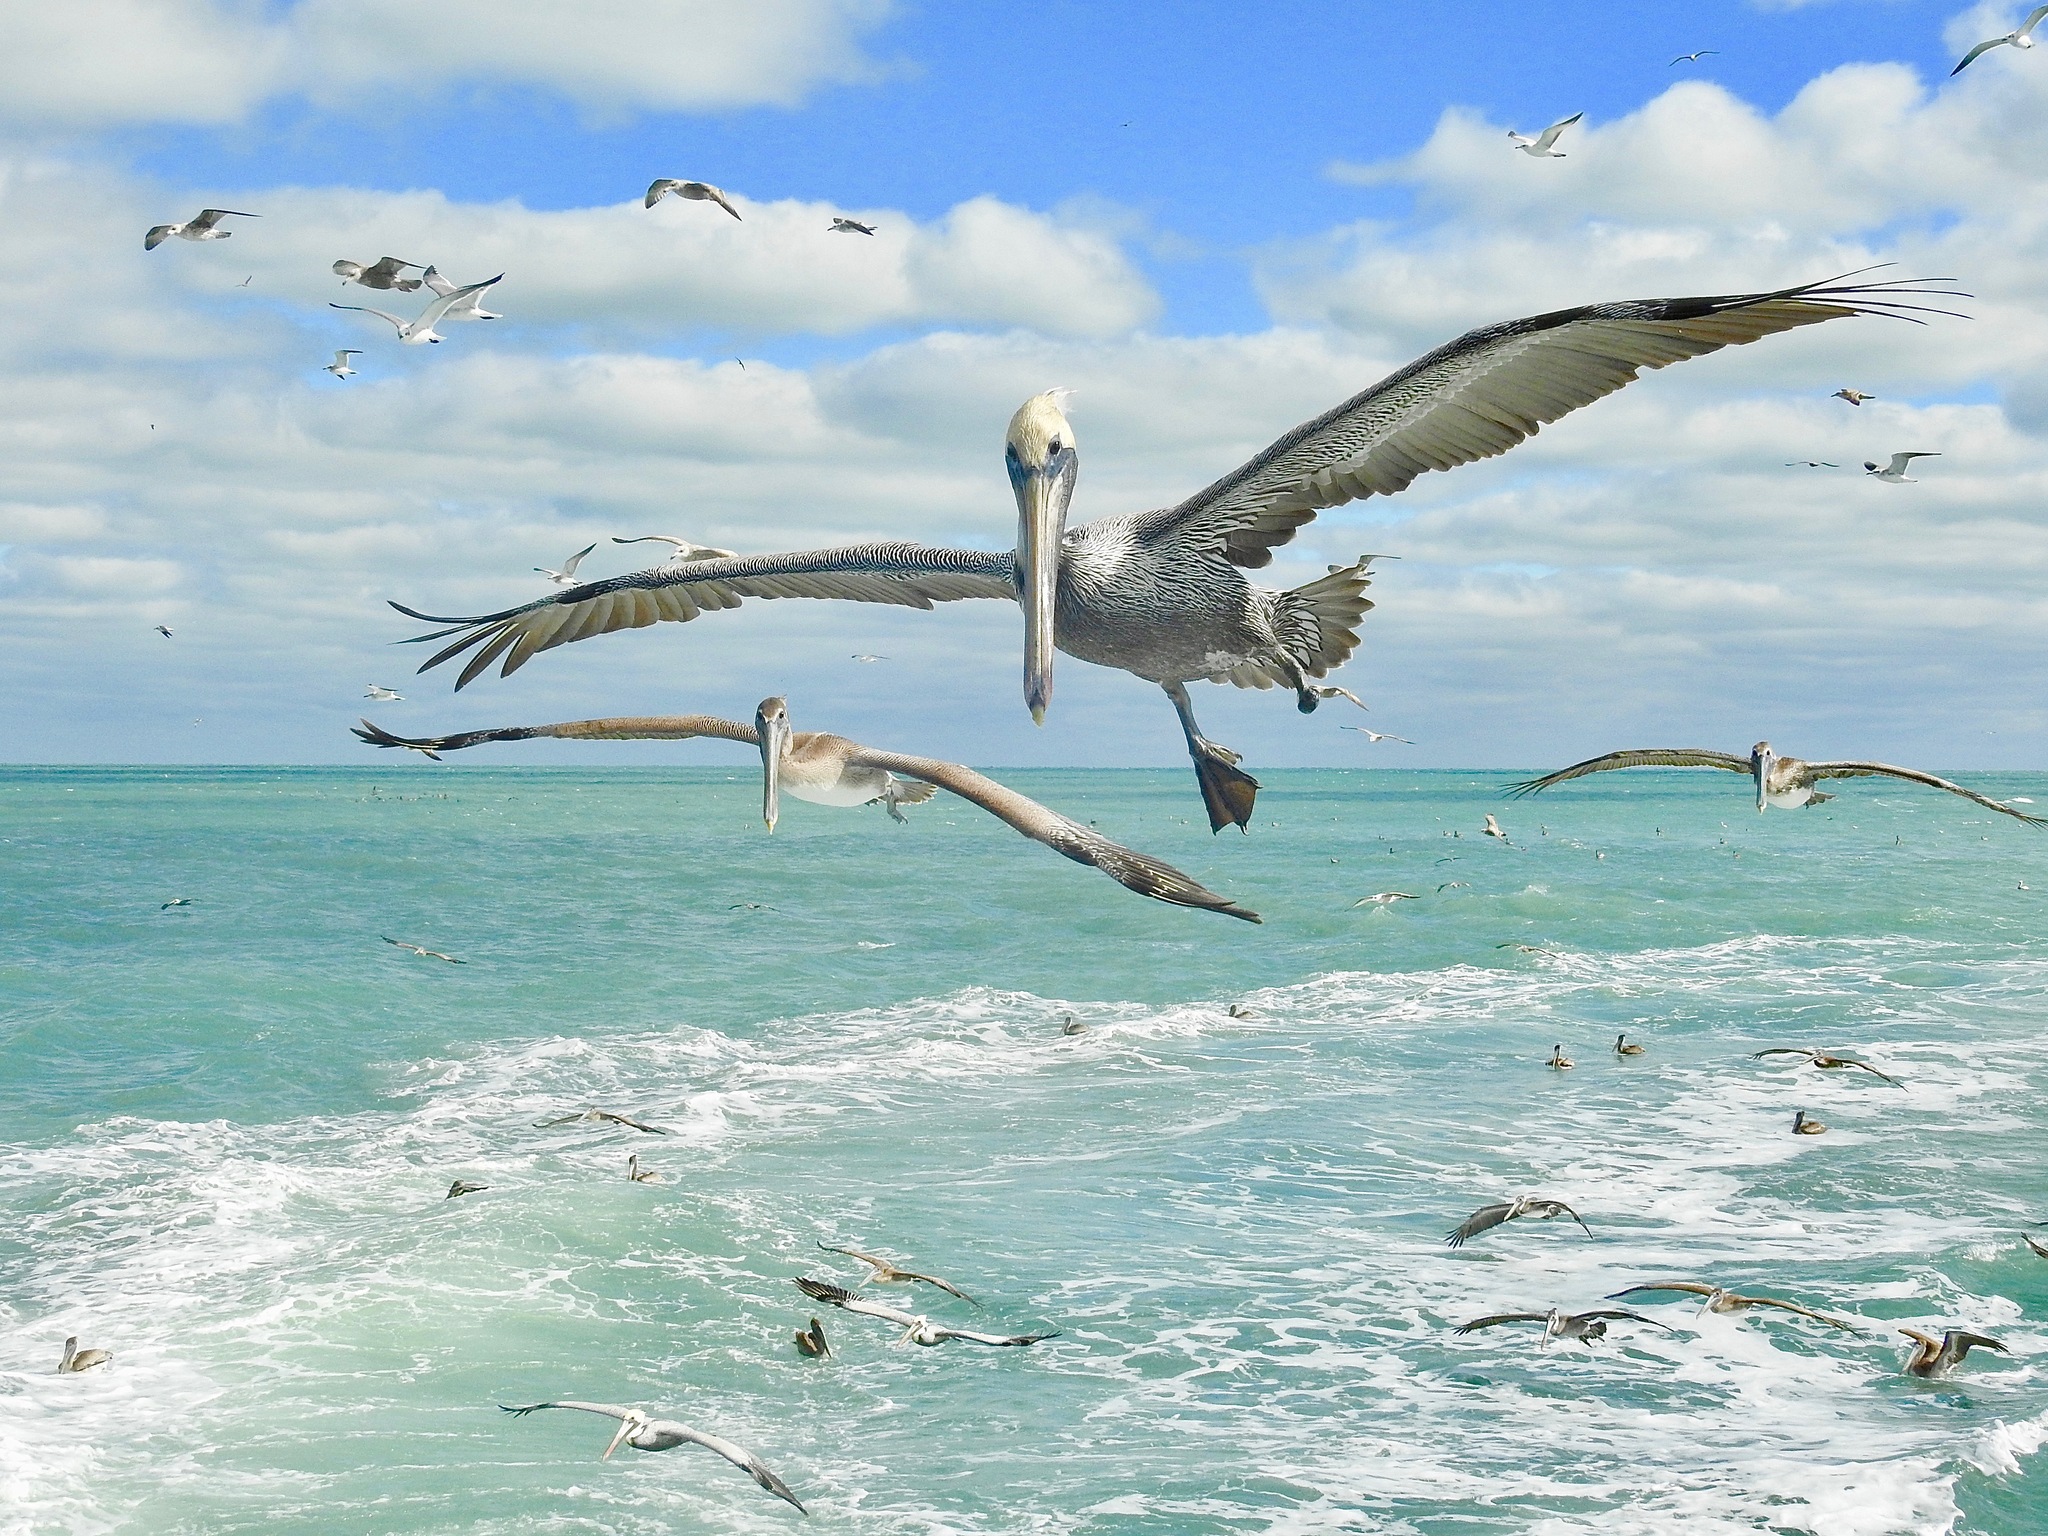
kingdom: Animalia
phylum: Chordata
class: Aves
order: Pelecaniformes
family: Pelecanidae
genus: Pelecanus
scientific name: Pelecanus occidentalis
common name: Brown pelican
